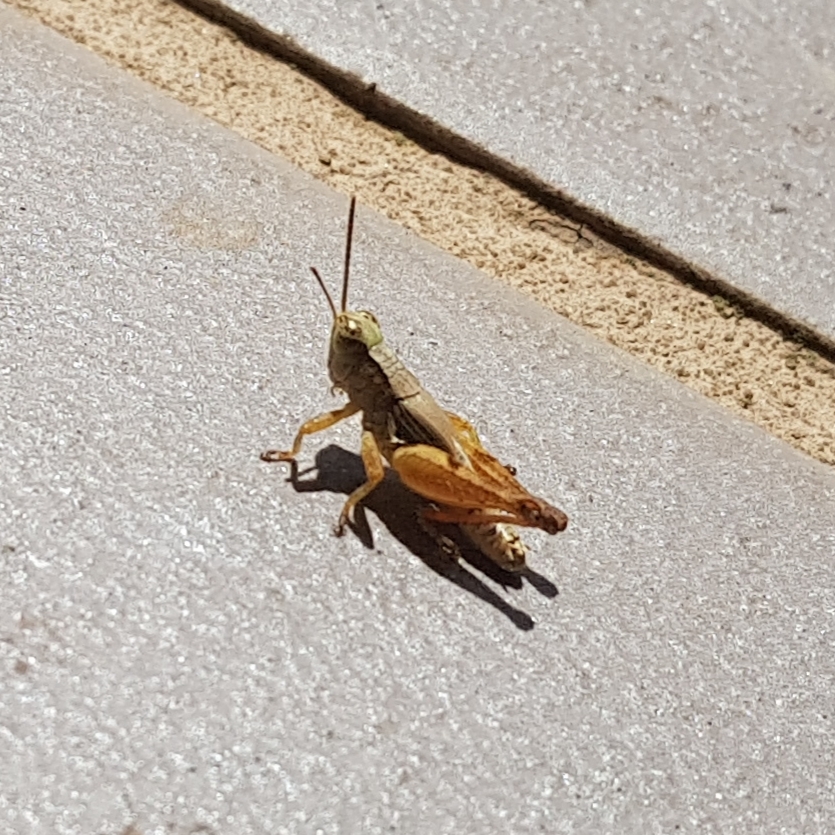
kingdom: Animalia
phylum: Arthropoda
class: Insecta
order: Orthoptera
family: Acrididae
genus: Phaulacridium
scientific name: Phaulacridium vittatum
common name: Wingless grasshopper
